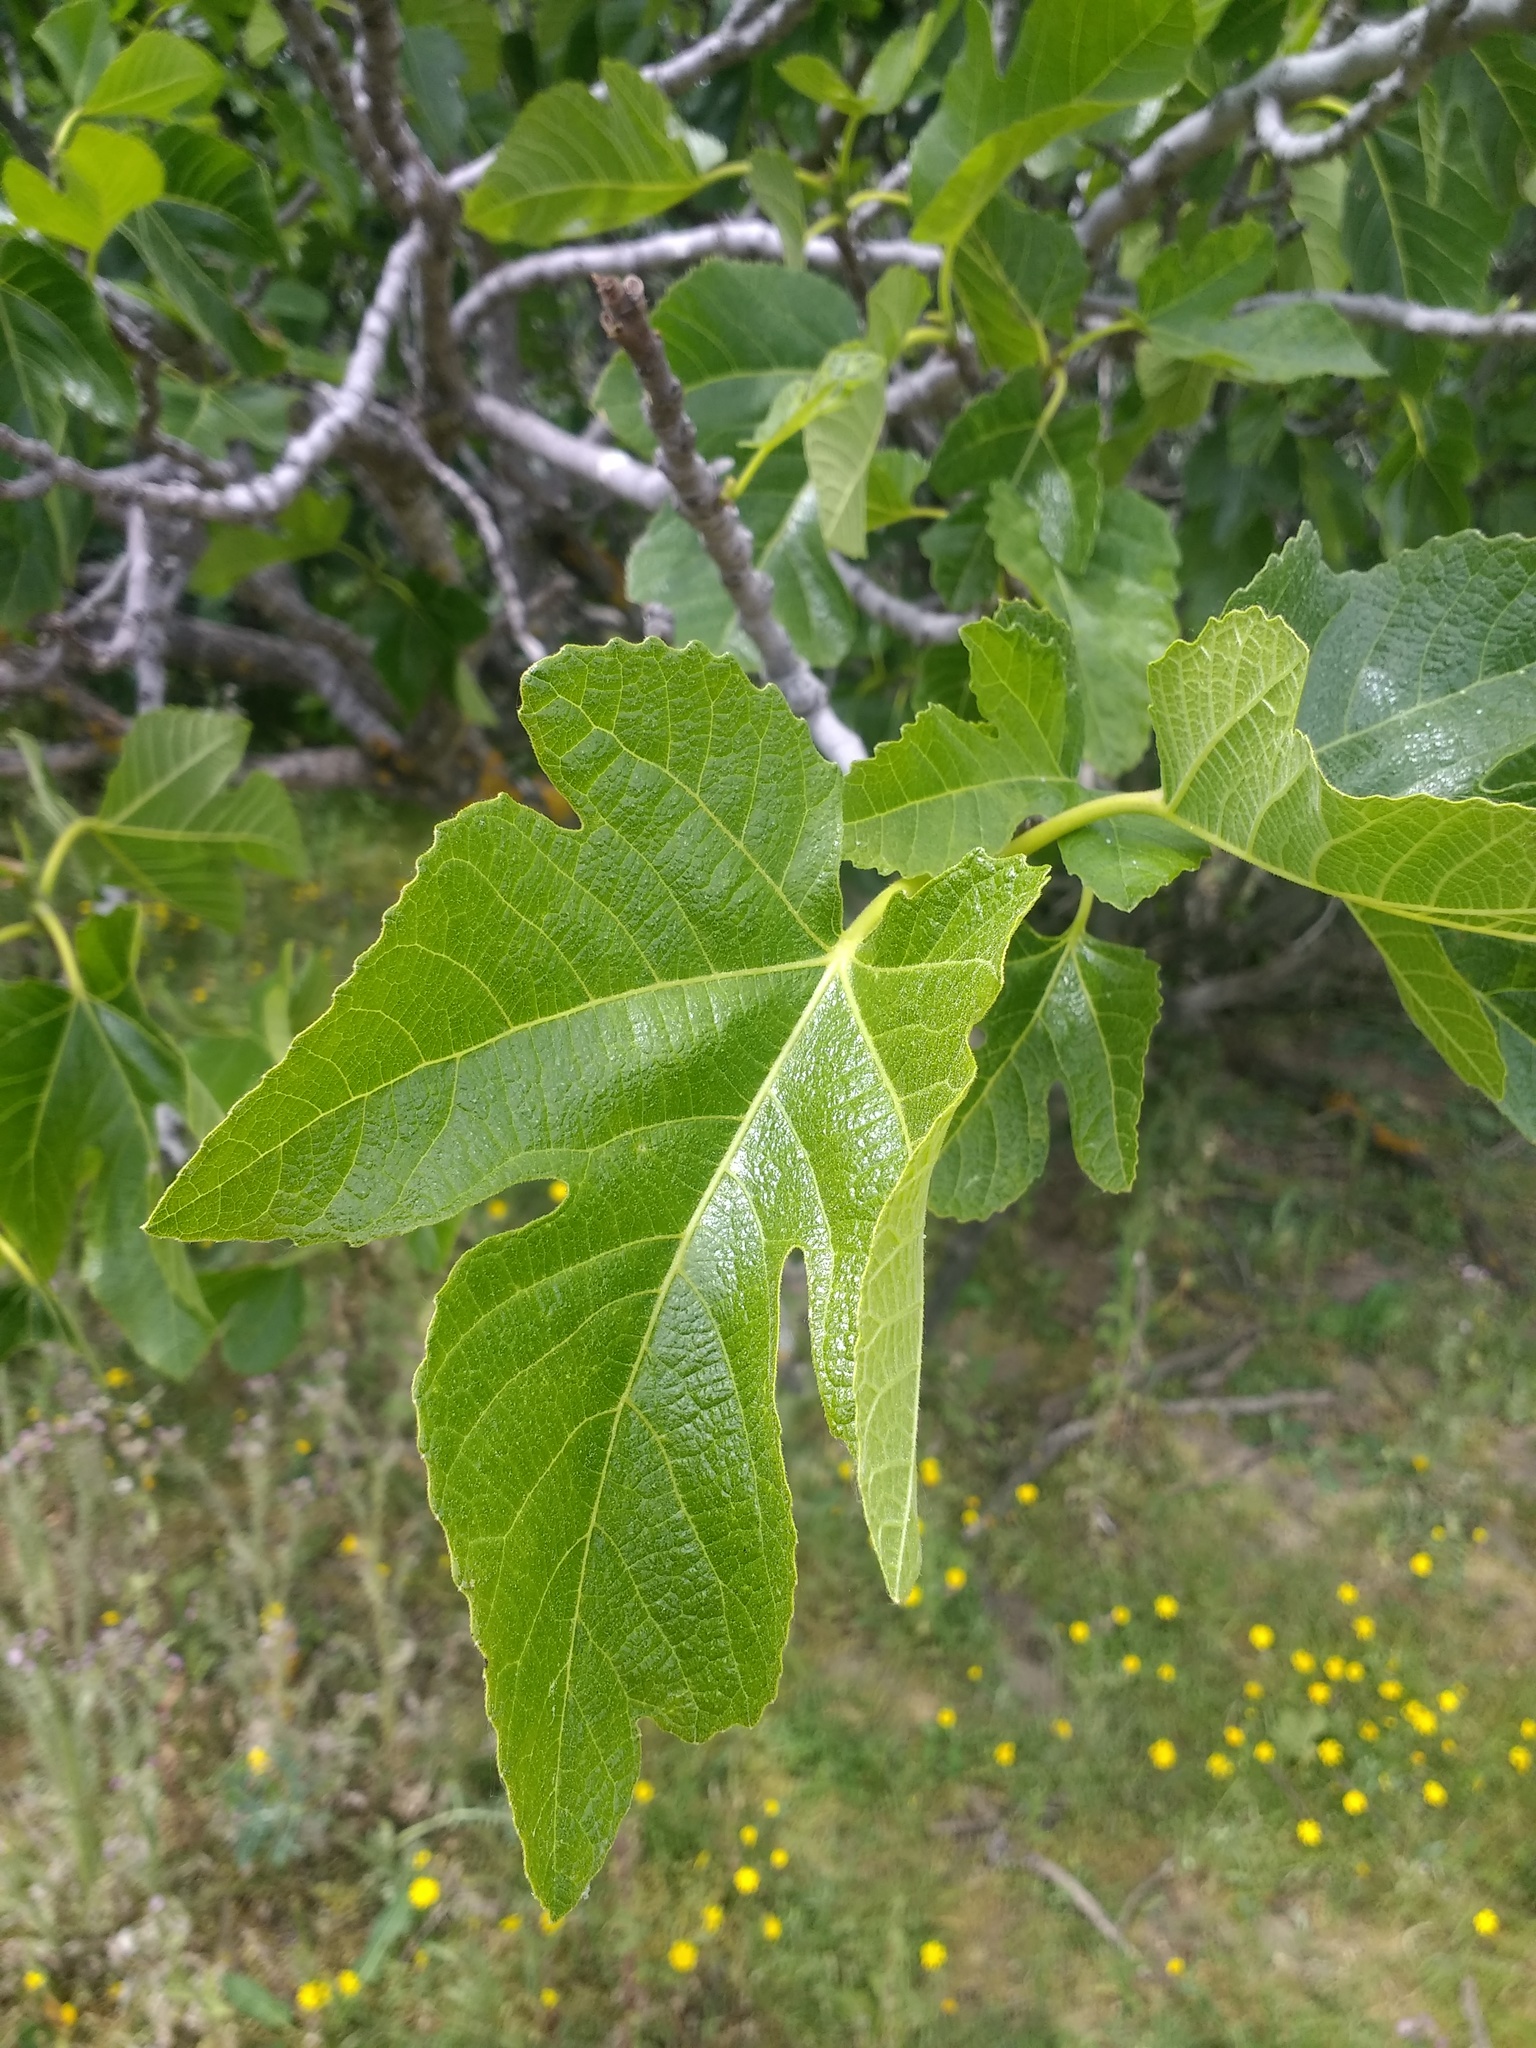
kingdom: Plantae
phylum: Tracheophyta
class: Magnoliopsida
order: Rosales
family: Moraceae
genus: Ficus
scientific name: Ficus carica
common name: Fig
